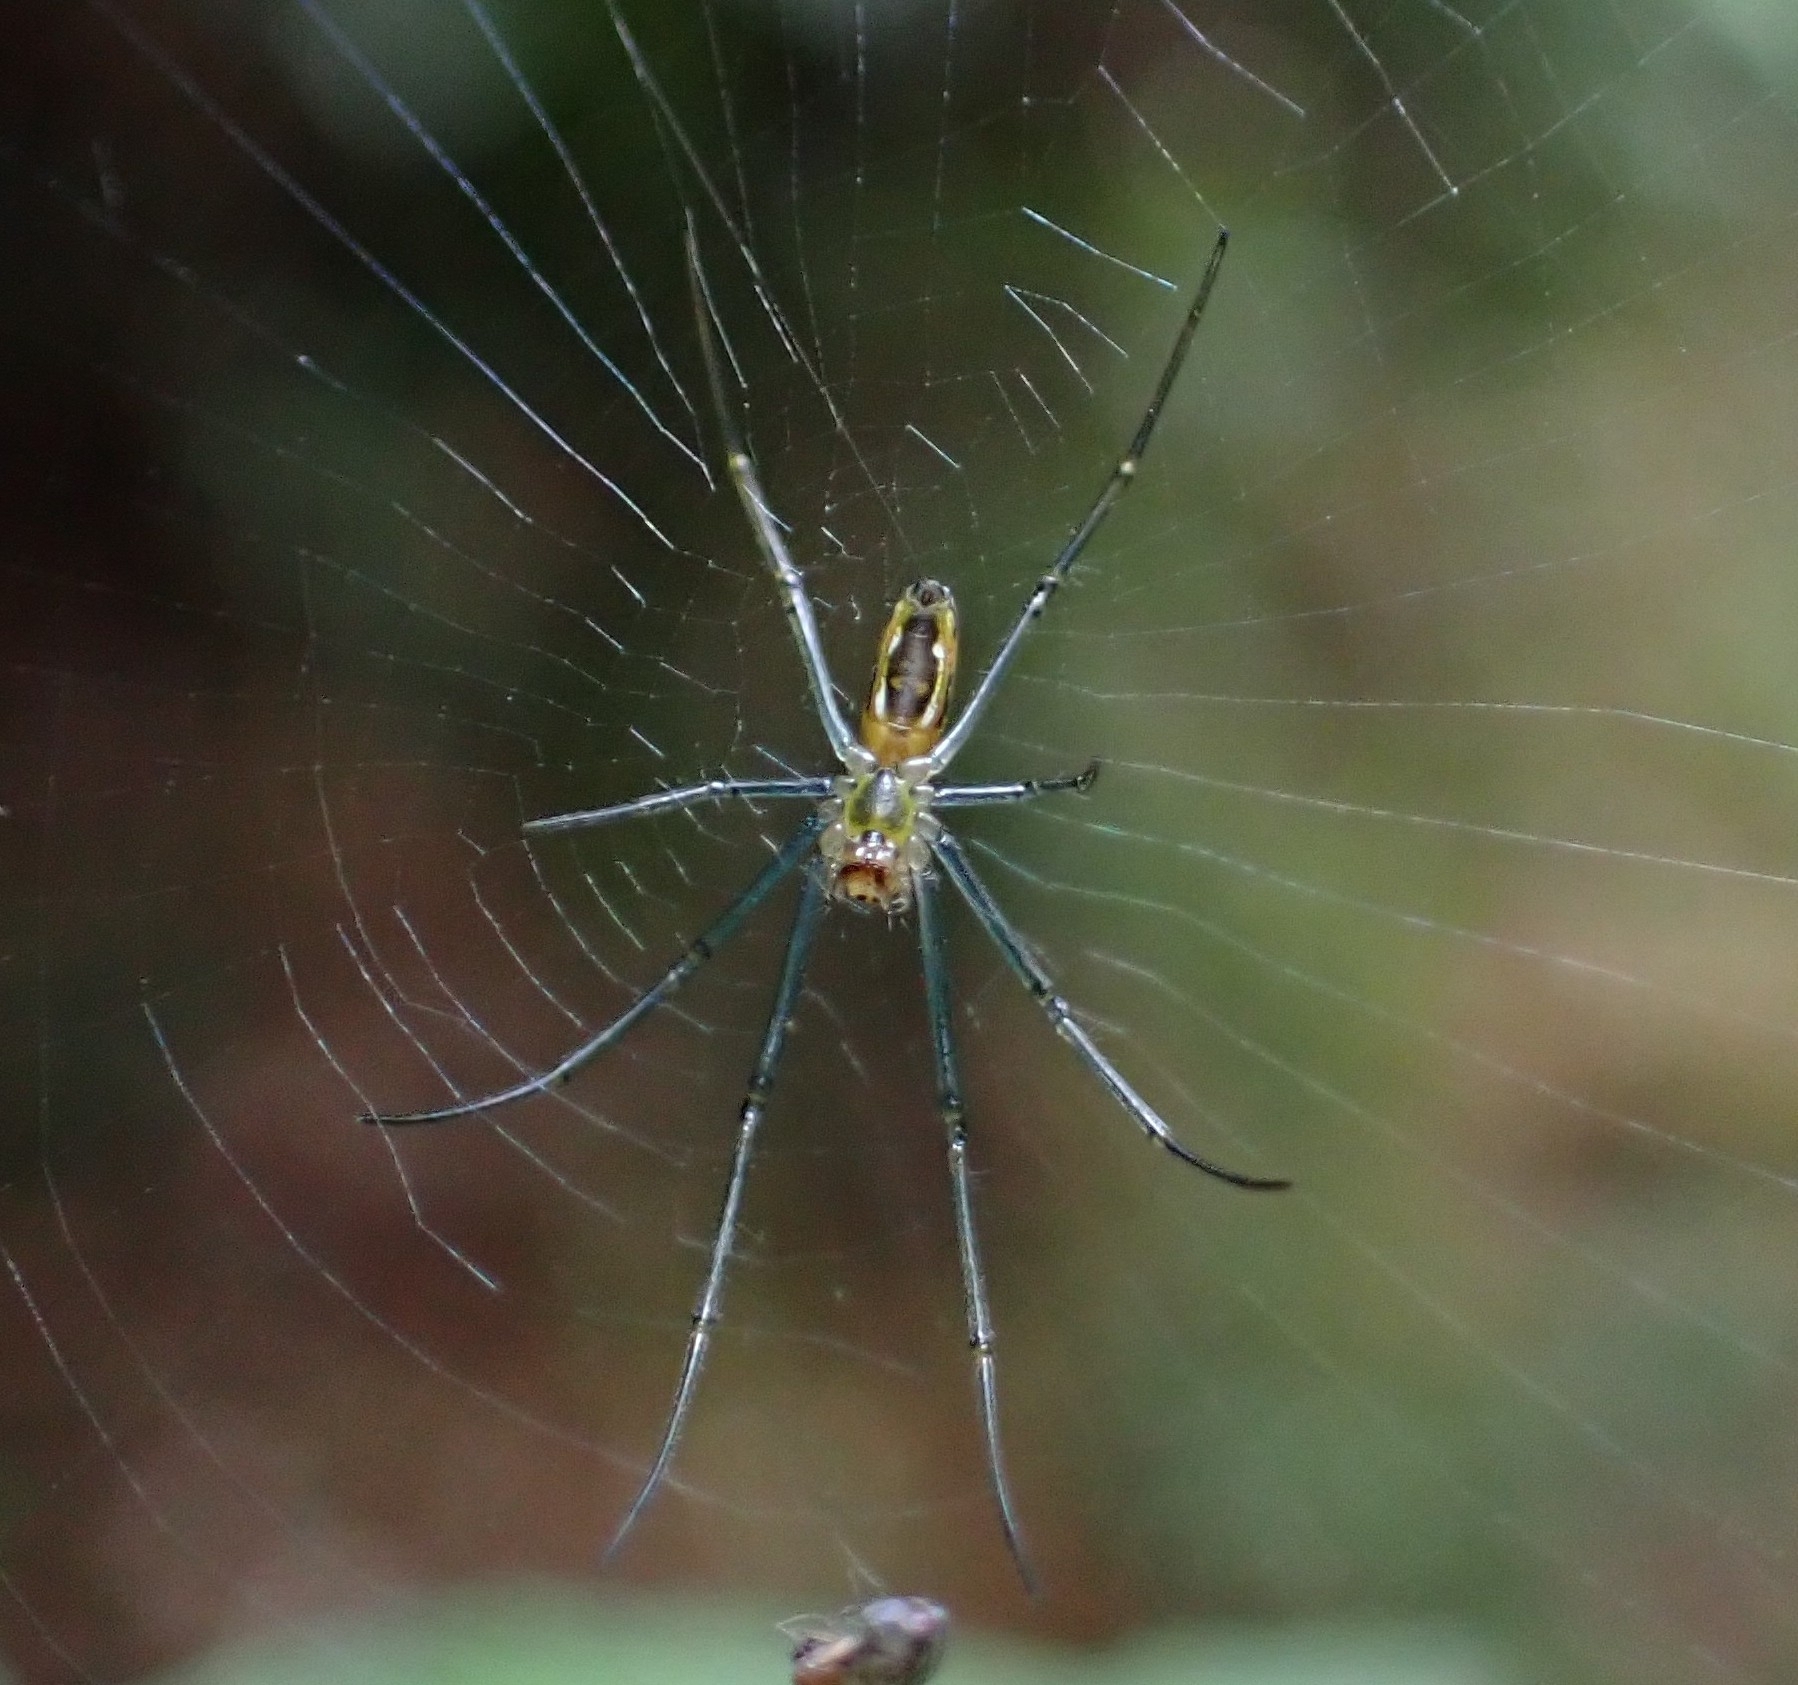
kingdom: Animalia
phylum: Arthropoda
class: Arachnida
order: Araneae
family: Araneidae
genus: Nephila
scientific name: Nephila pilipes
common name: Giant golden orb weaver
